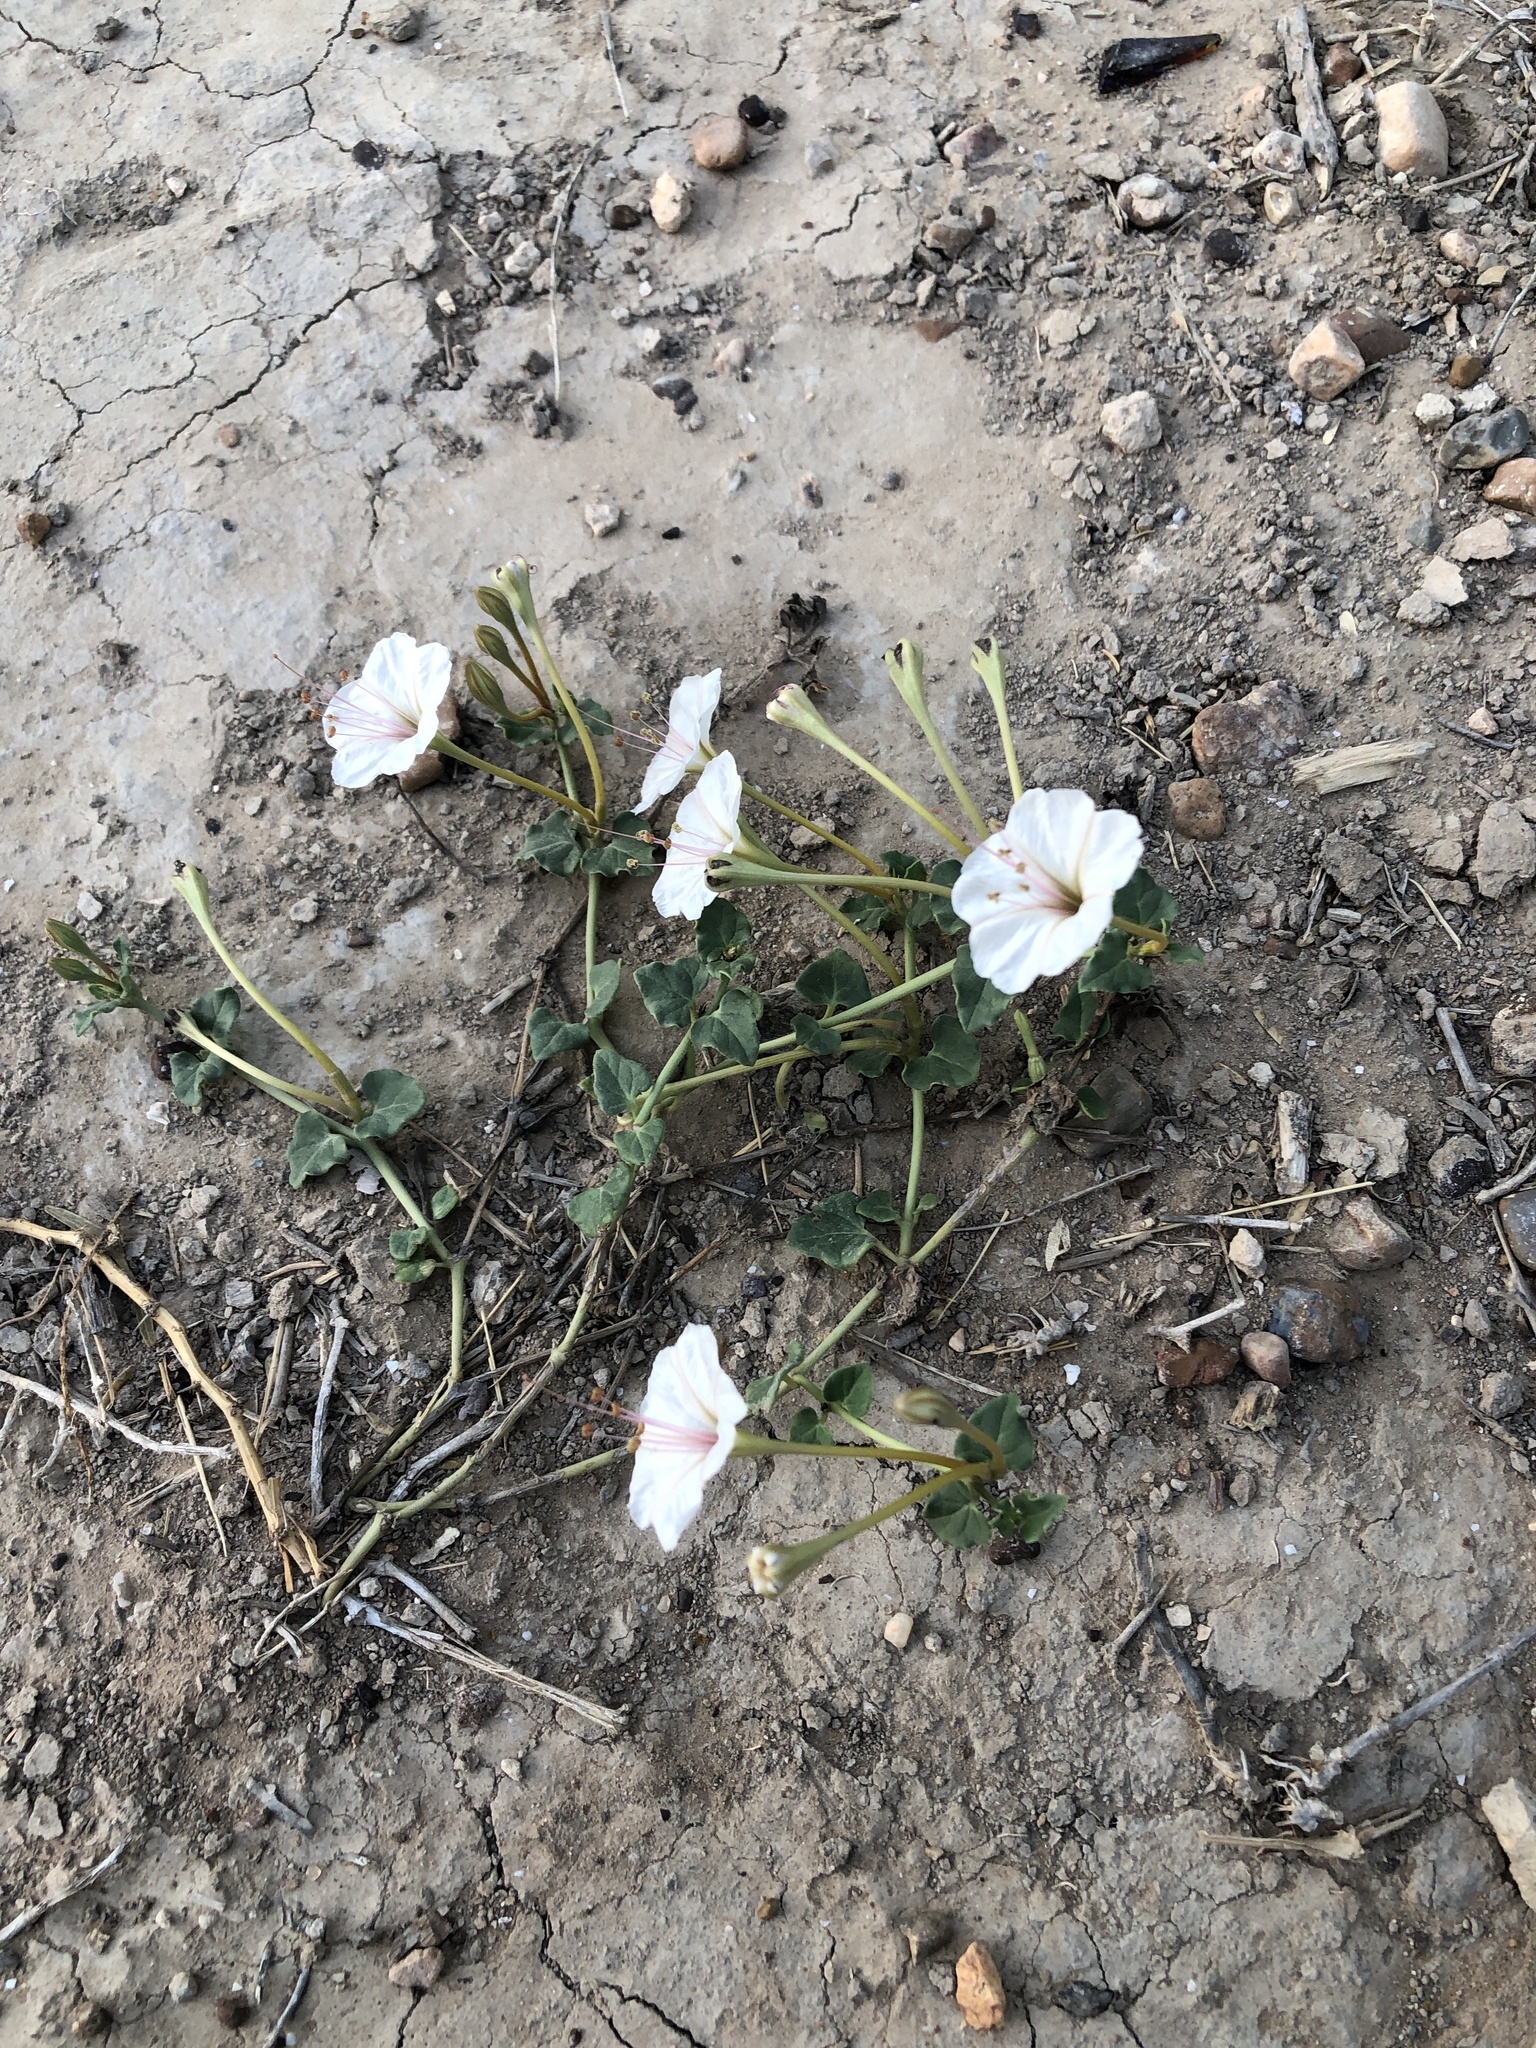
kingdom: Plantae
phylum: Tracheophyta
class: Magnoliopsida
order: Caryophyllales
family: Nyctaginaceae
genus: Acleisanthes
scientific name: Acleisanthes obtusa
